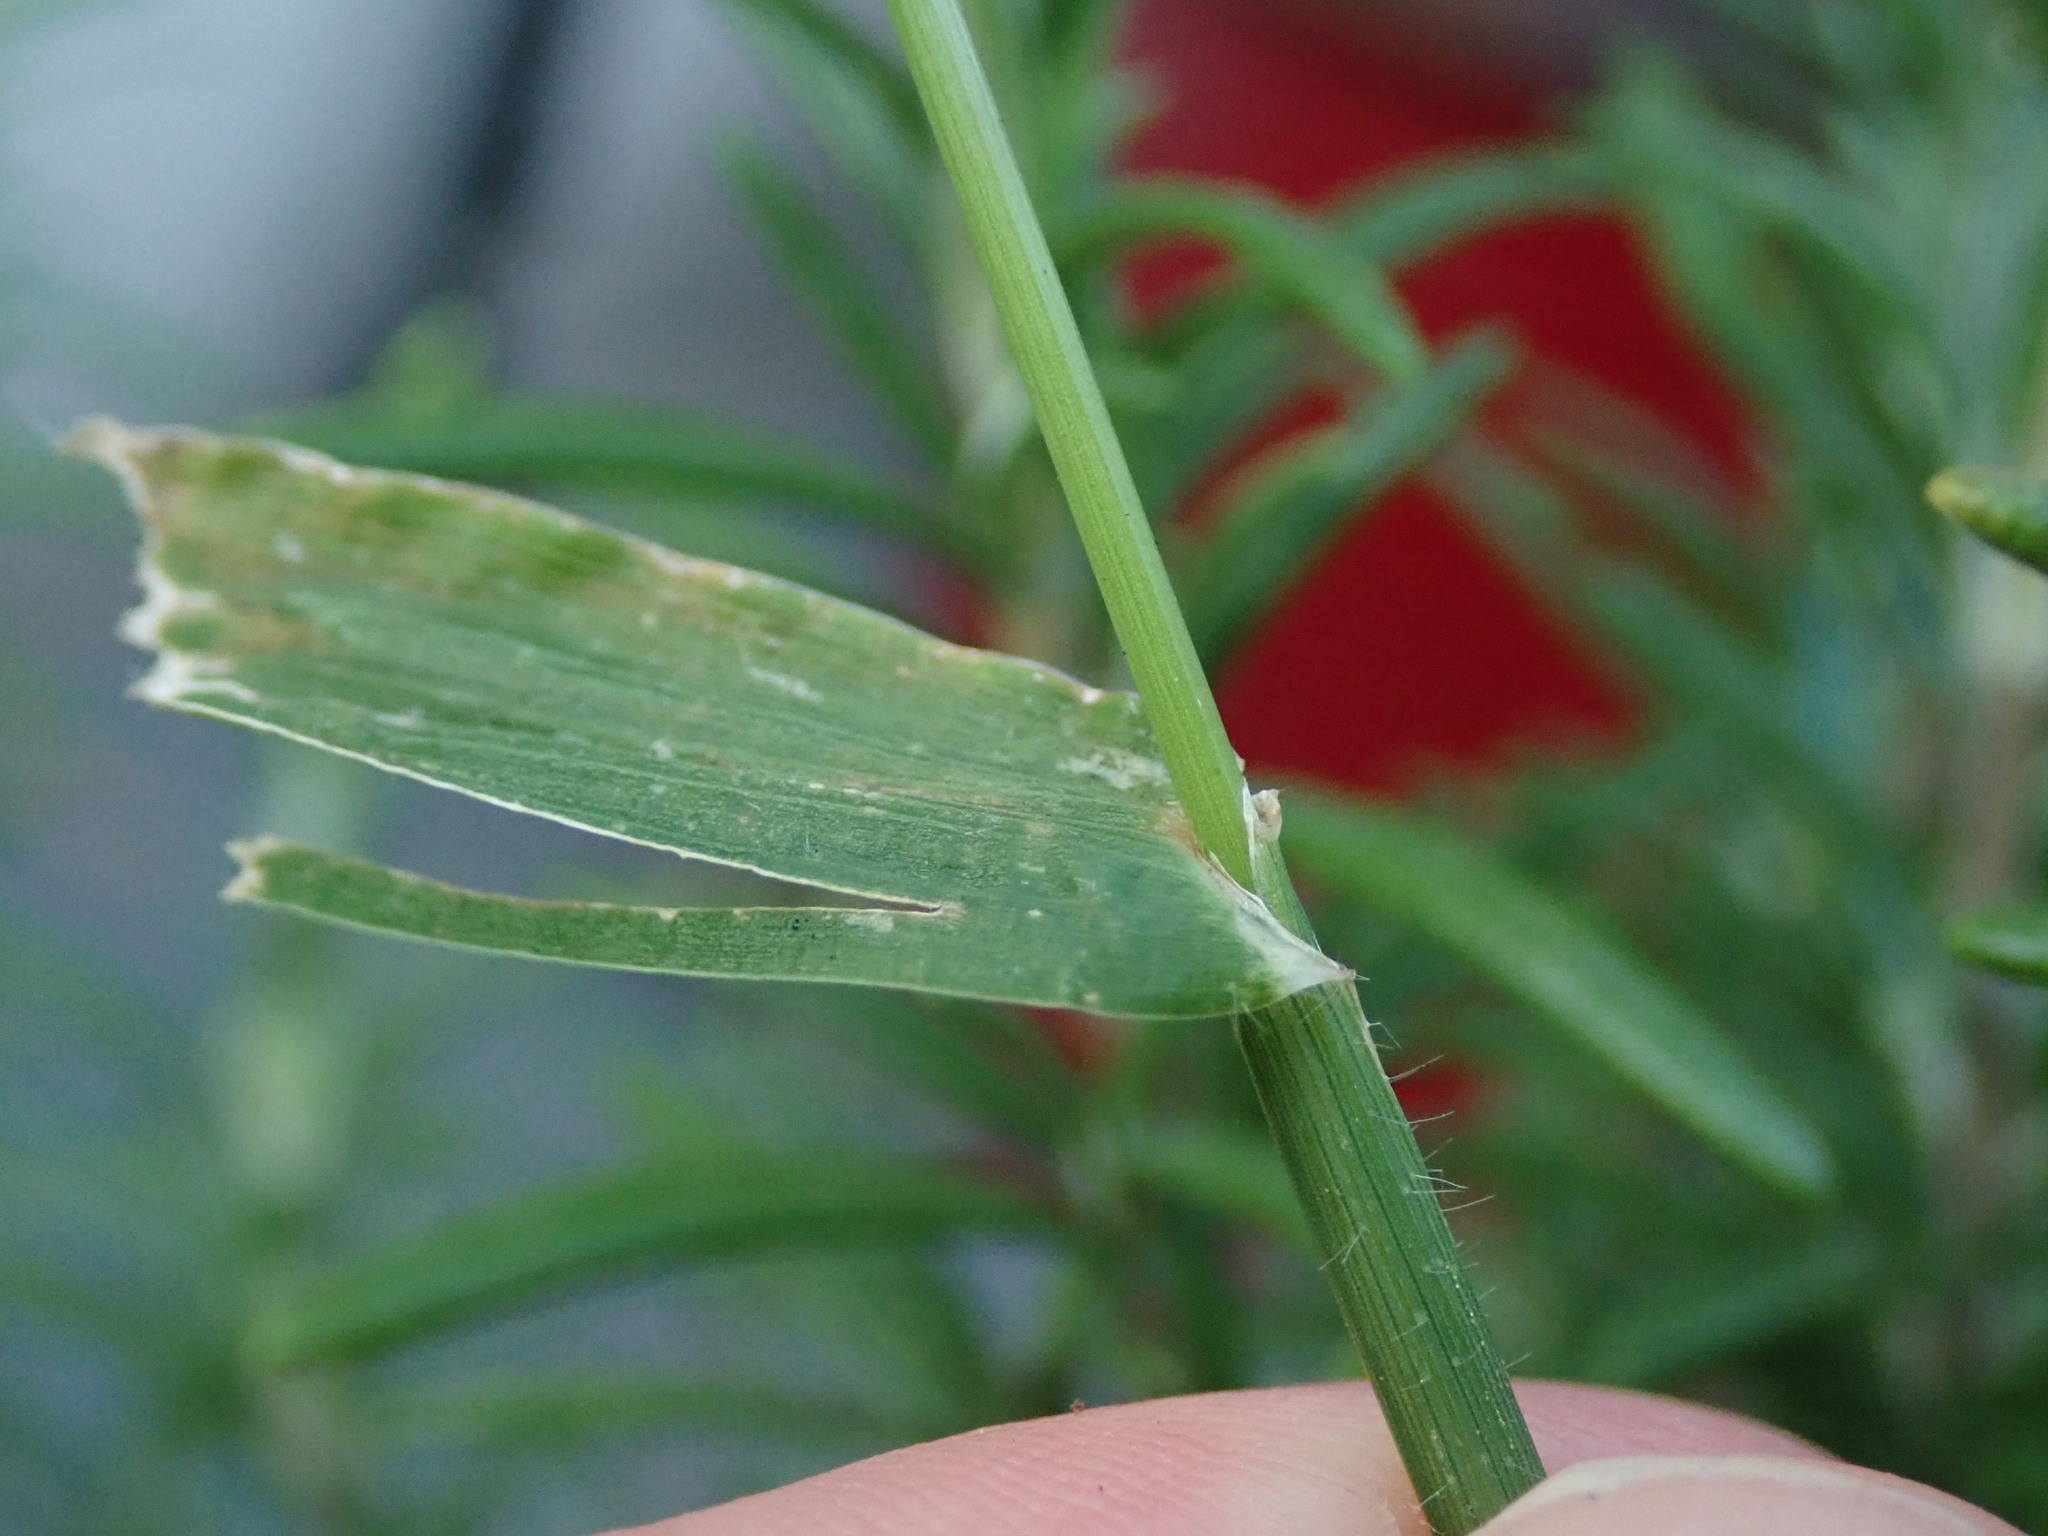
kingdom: Plantae
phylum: Tracheophyta
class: Liliopsida
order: Poales
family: Poaceae
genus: Digitaria
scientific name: Digitaria sanguinalis
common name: Hairy crabgrass
